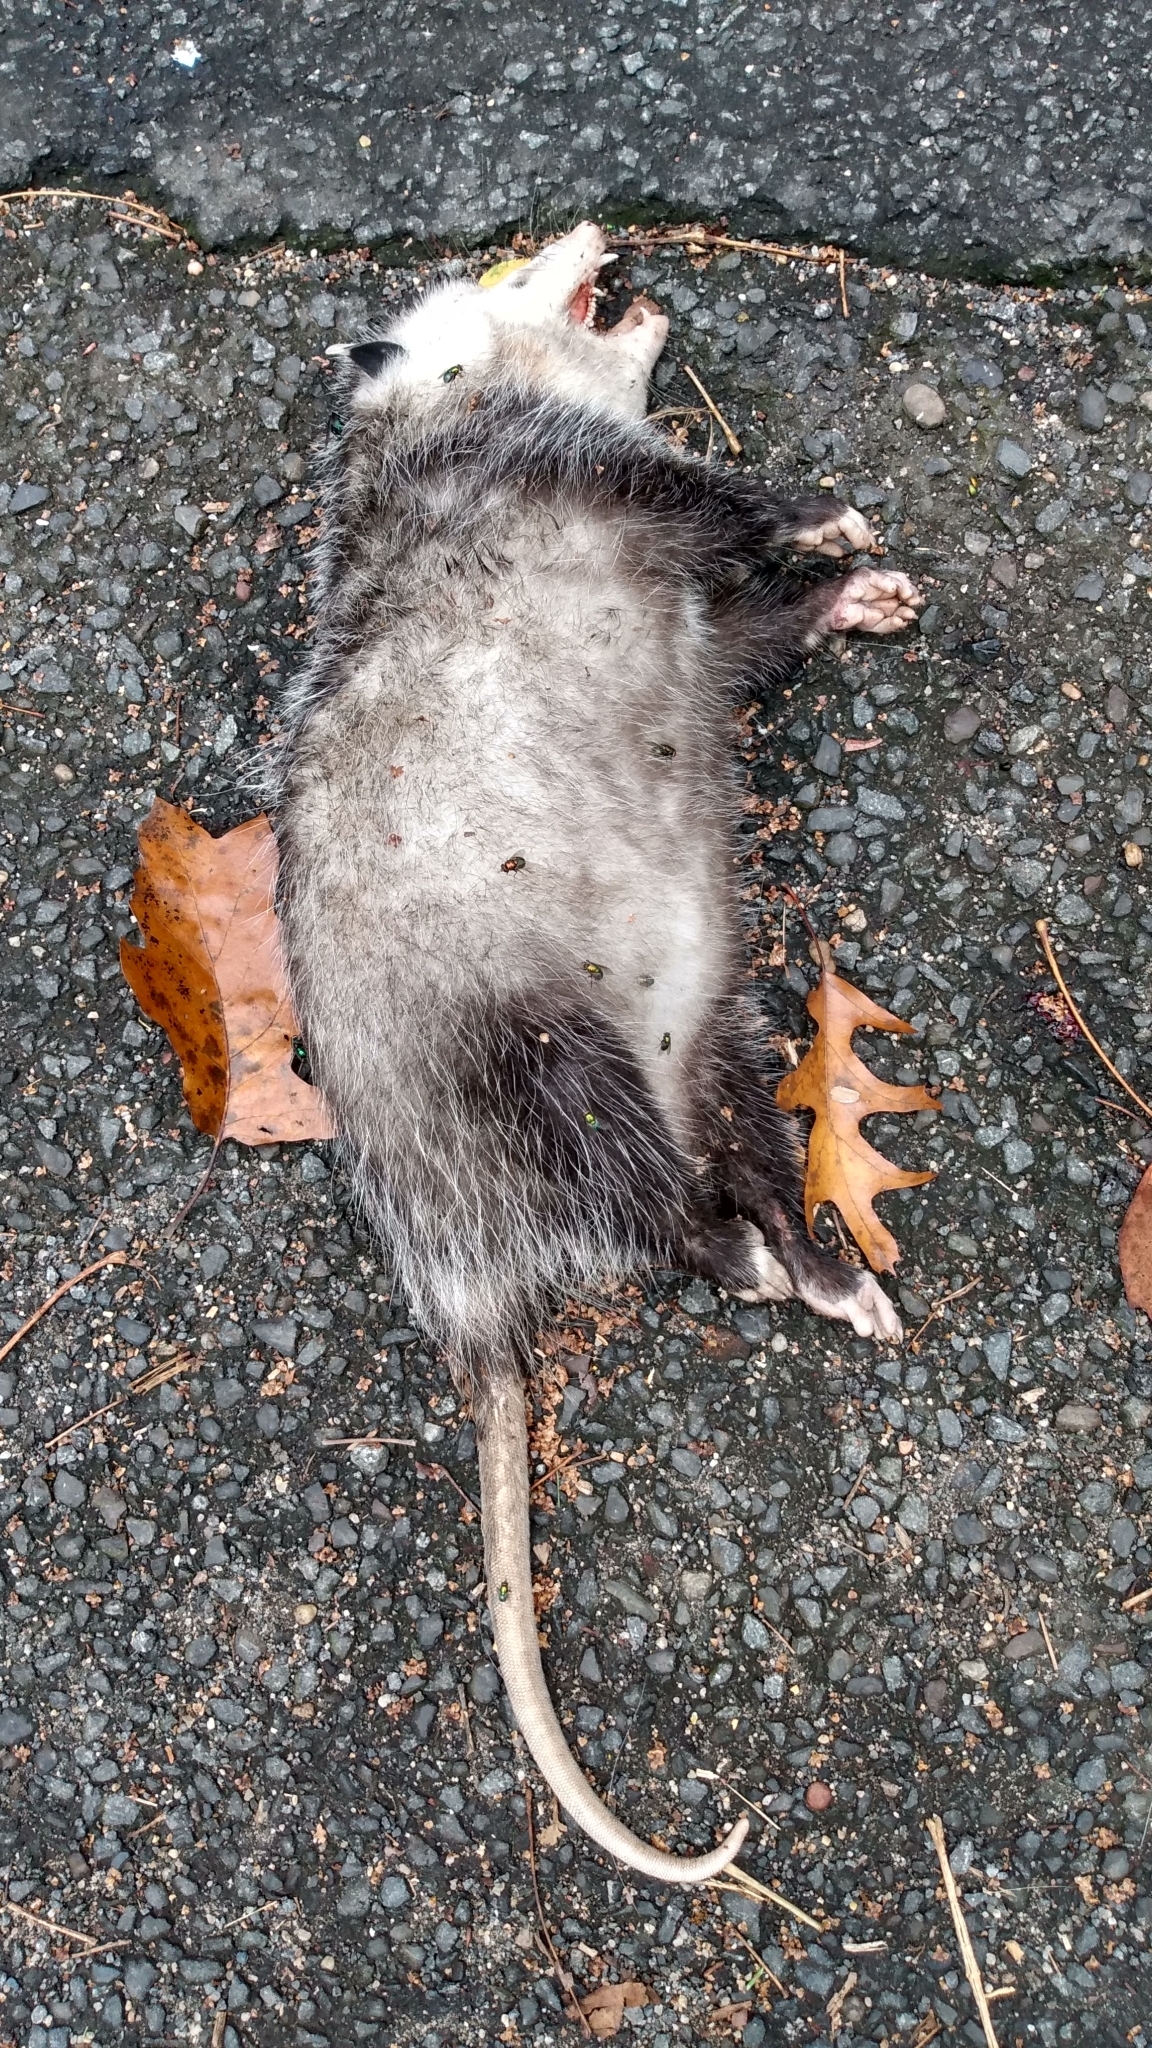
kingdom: Animalia
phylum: Chordata
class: Mammalia
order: Didelphimorphia
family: Didelphidae
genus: Didelphis
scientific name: Didelphis virginiana
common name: Virginia opossum
